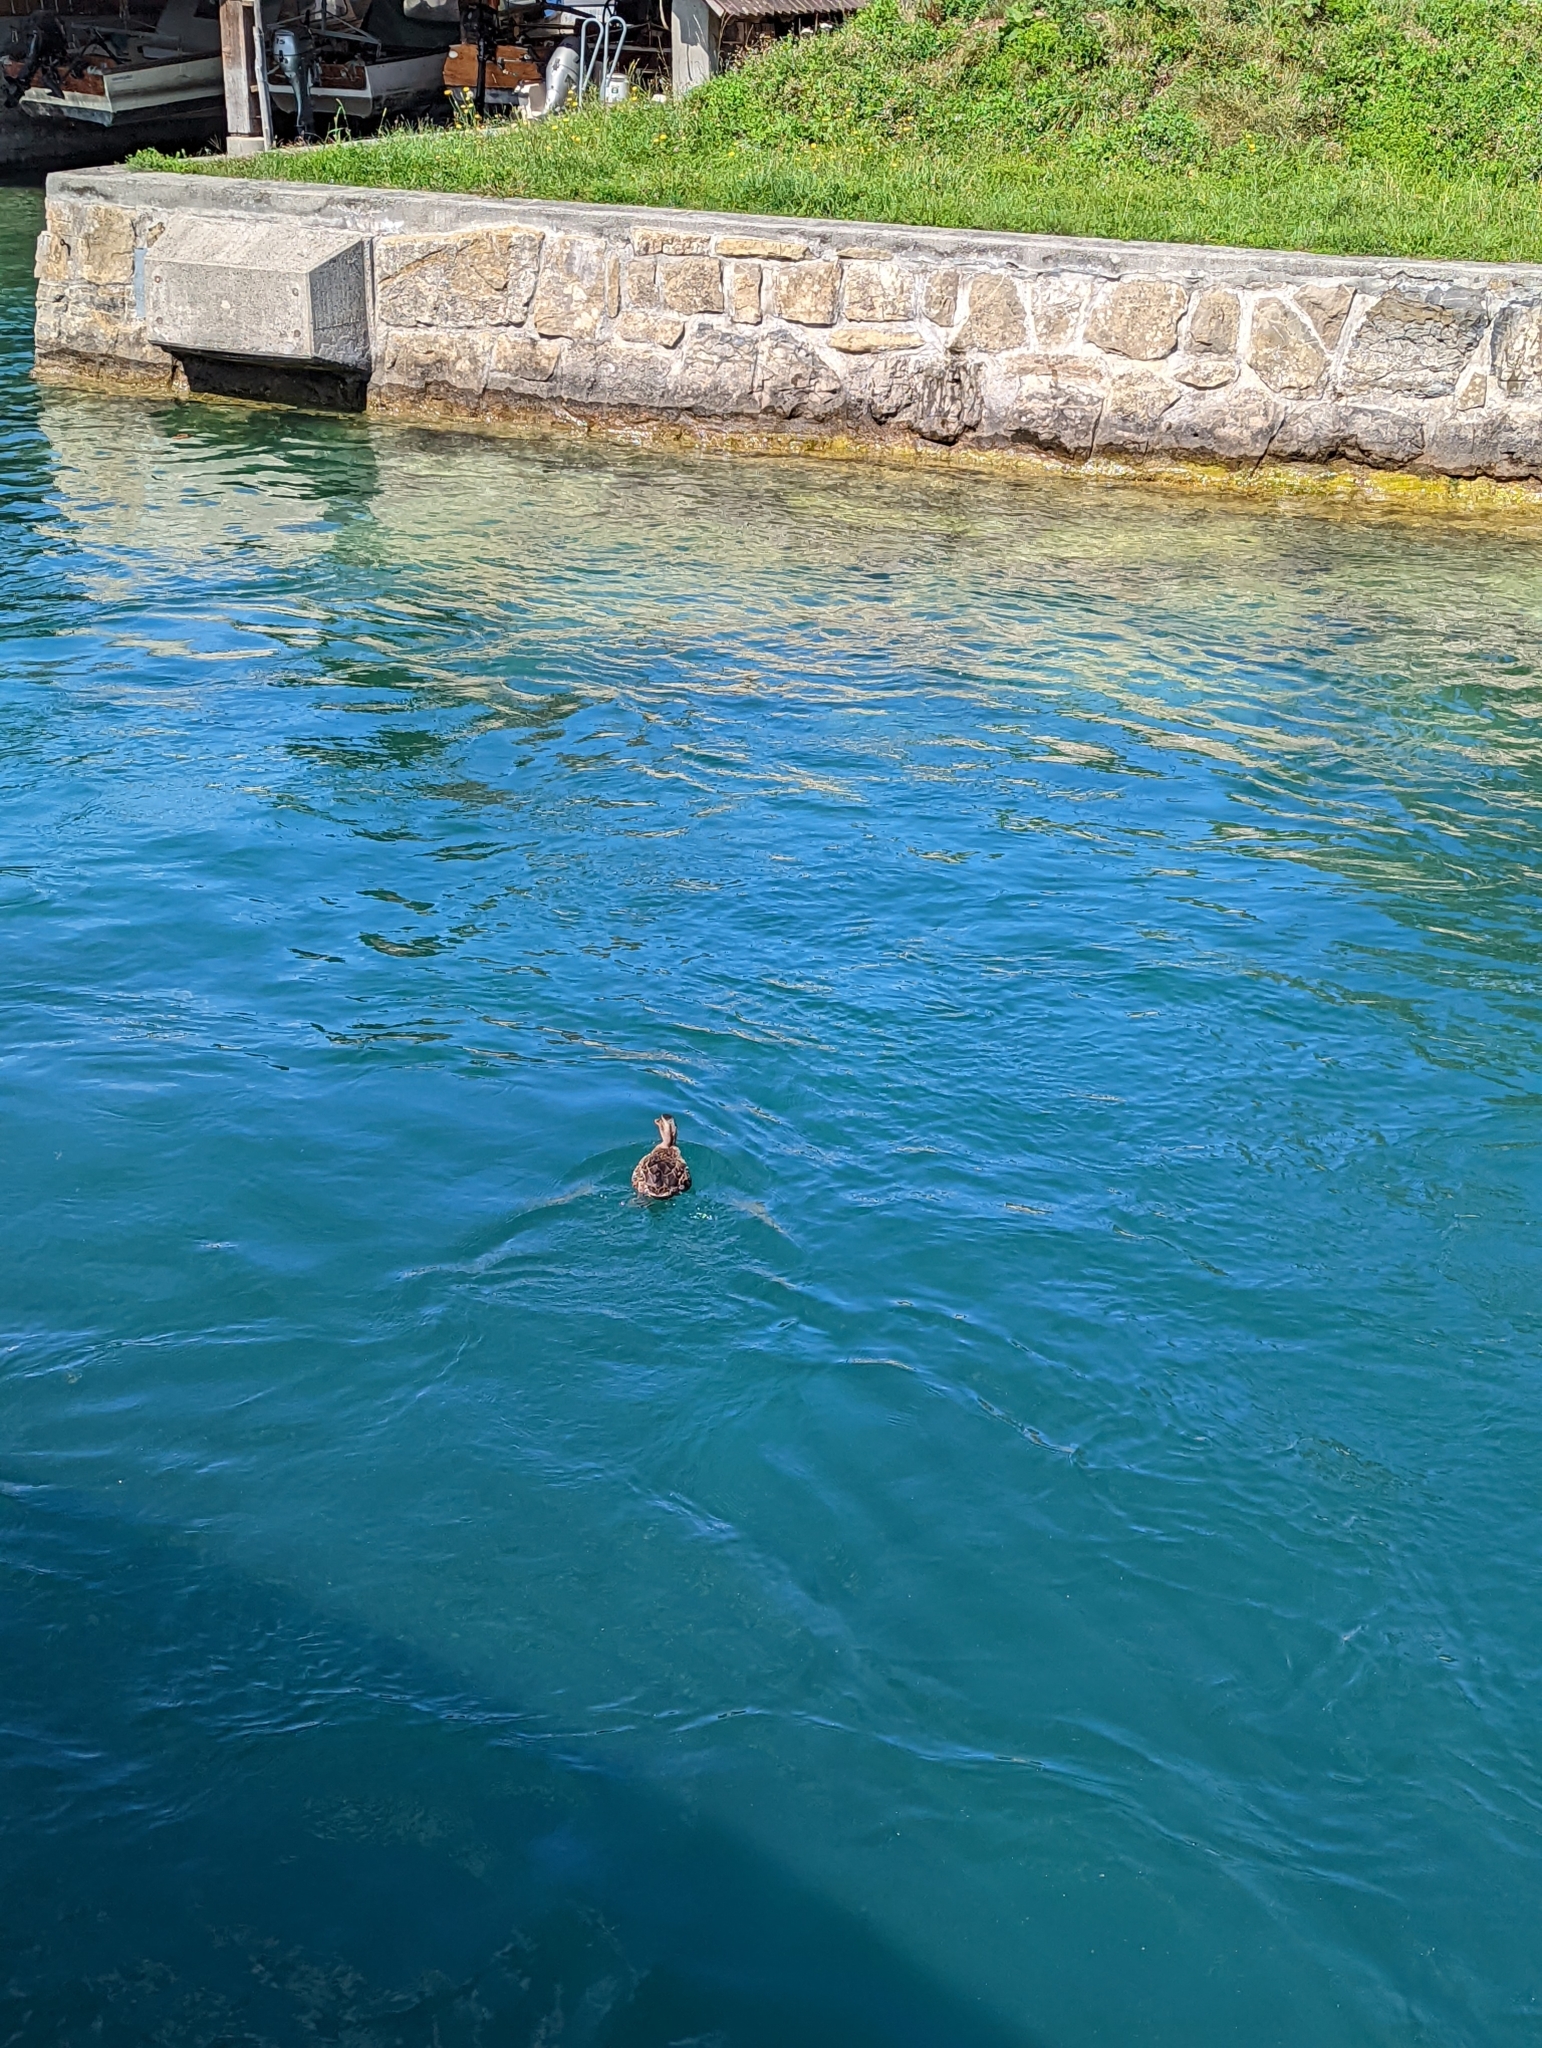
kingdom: Animalia
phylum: Chordata
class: Aves
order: Anseriformes
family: Anatidae
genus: Anas
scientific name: Anas platyrhynchos
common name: Mallard
